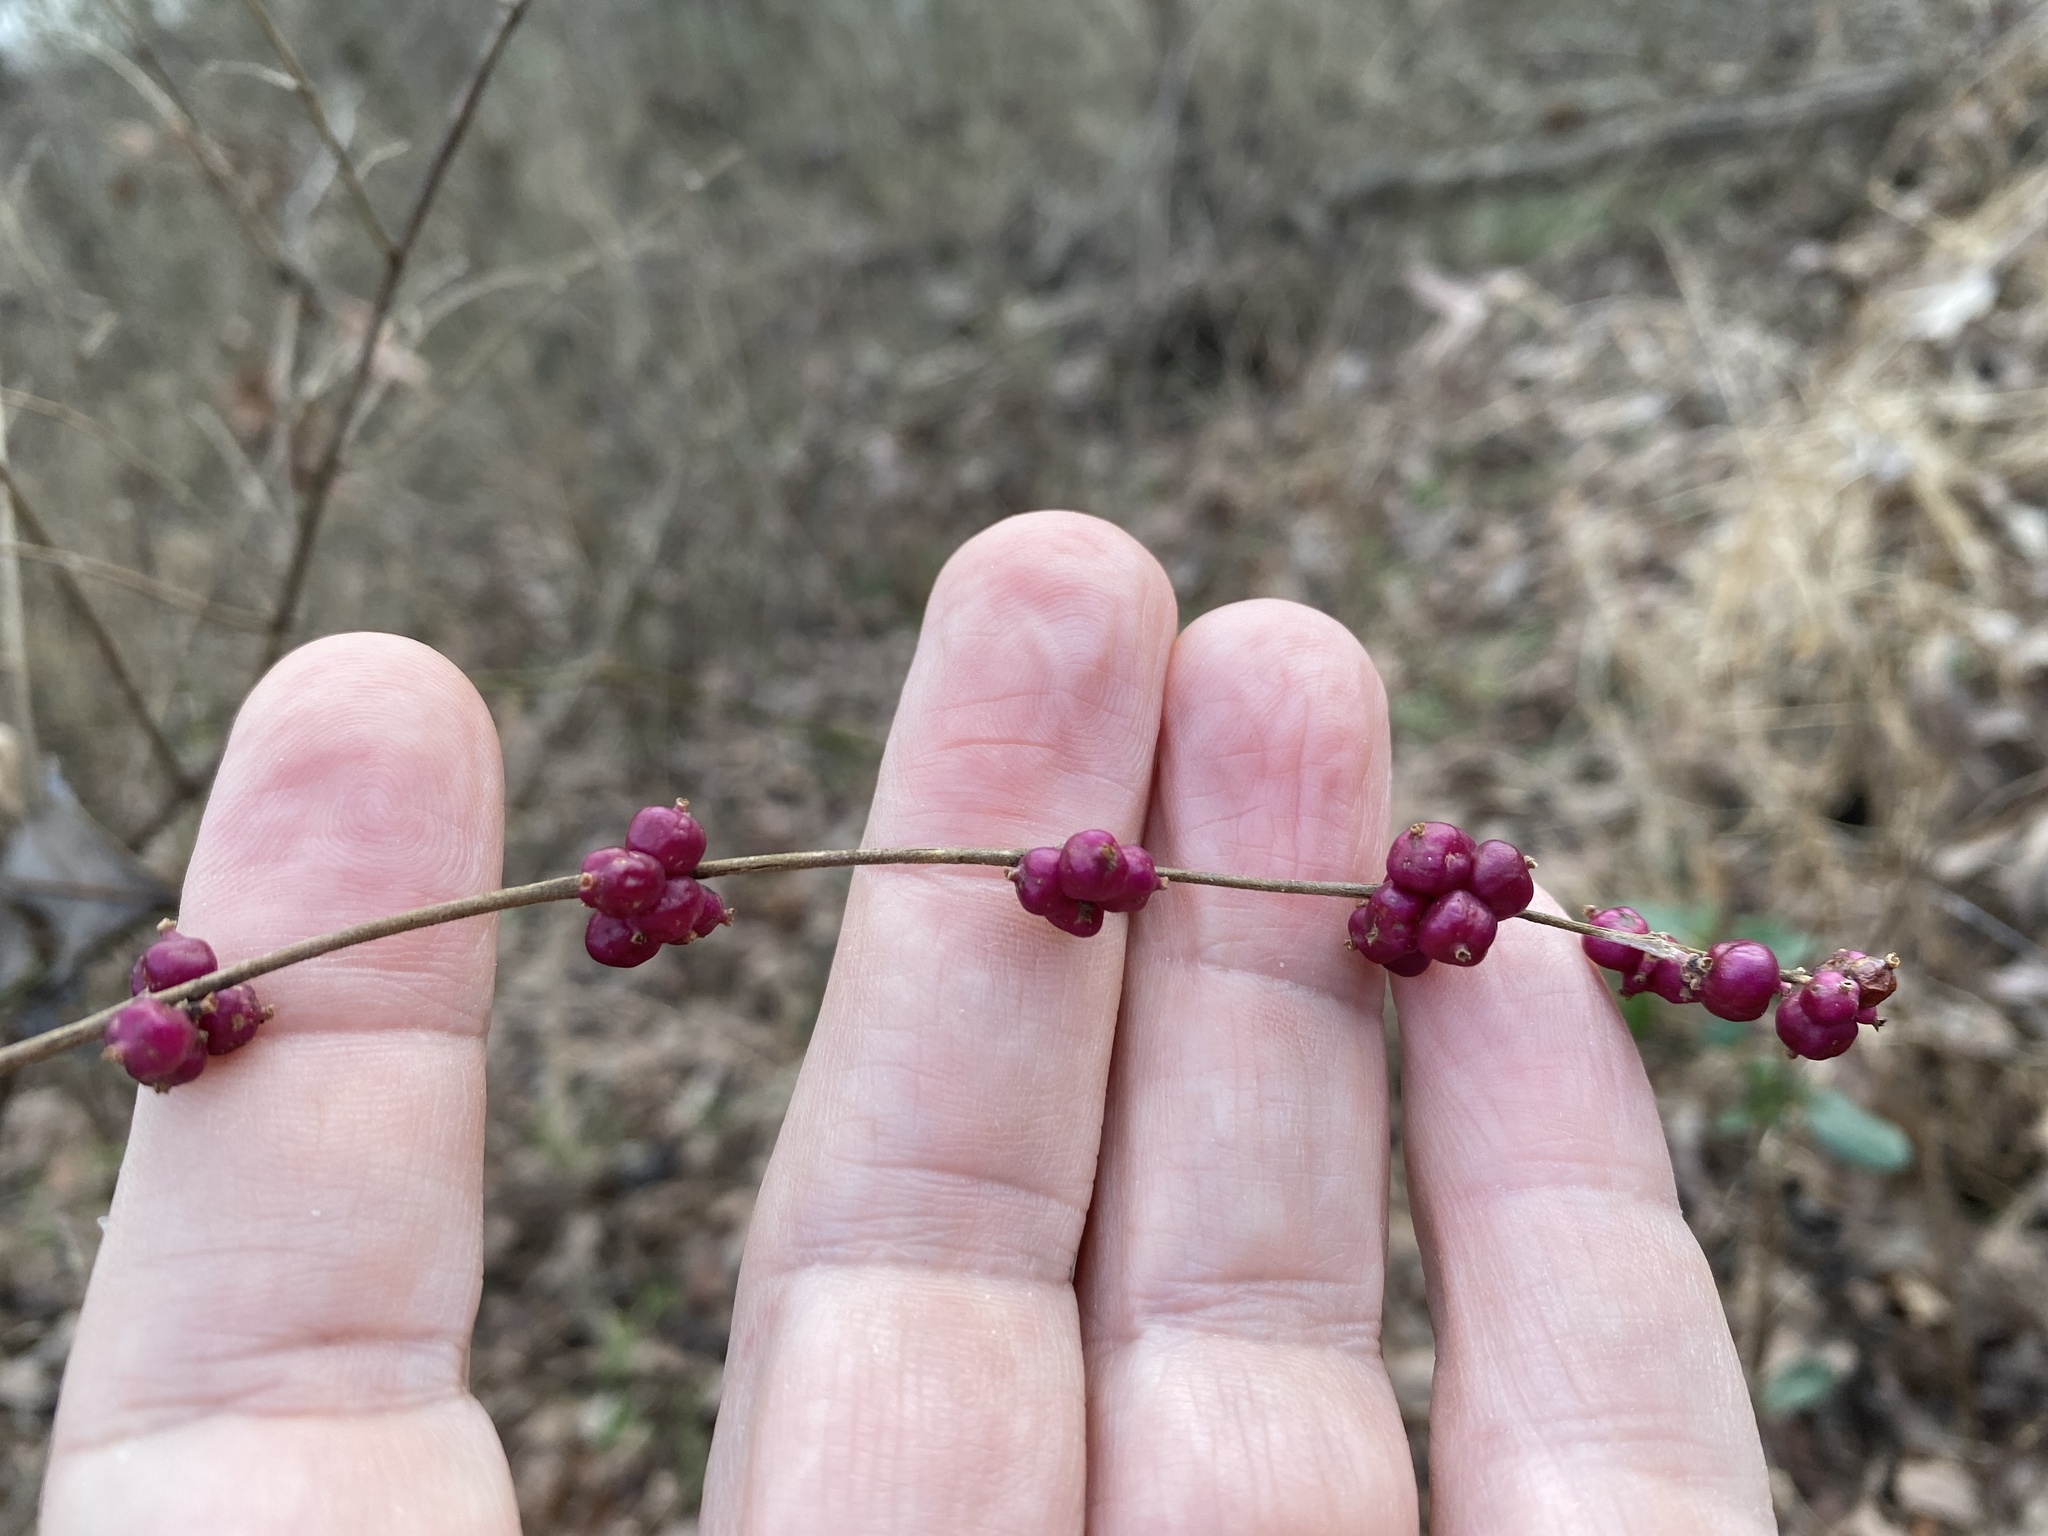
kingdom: Plantae
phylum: Tracheophyta
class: Magnoliopsida
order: Dipsacales
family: Caprifoliaceae
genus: Symphoricarpos
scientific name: Symphoricarpos orbiculatus
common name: Coralberry
